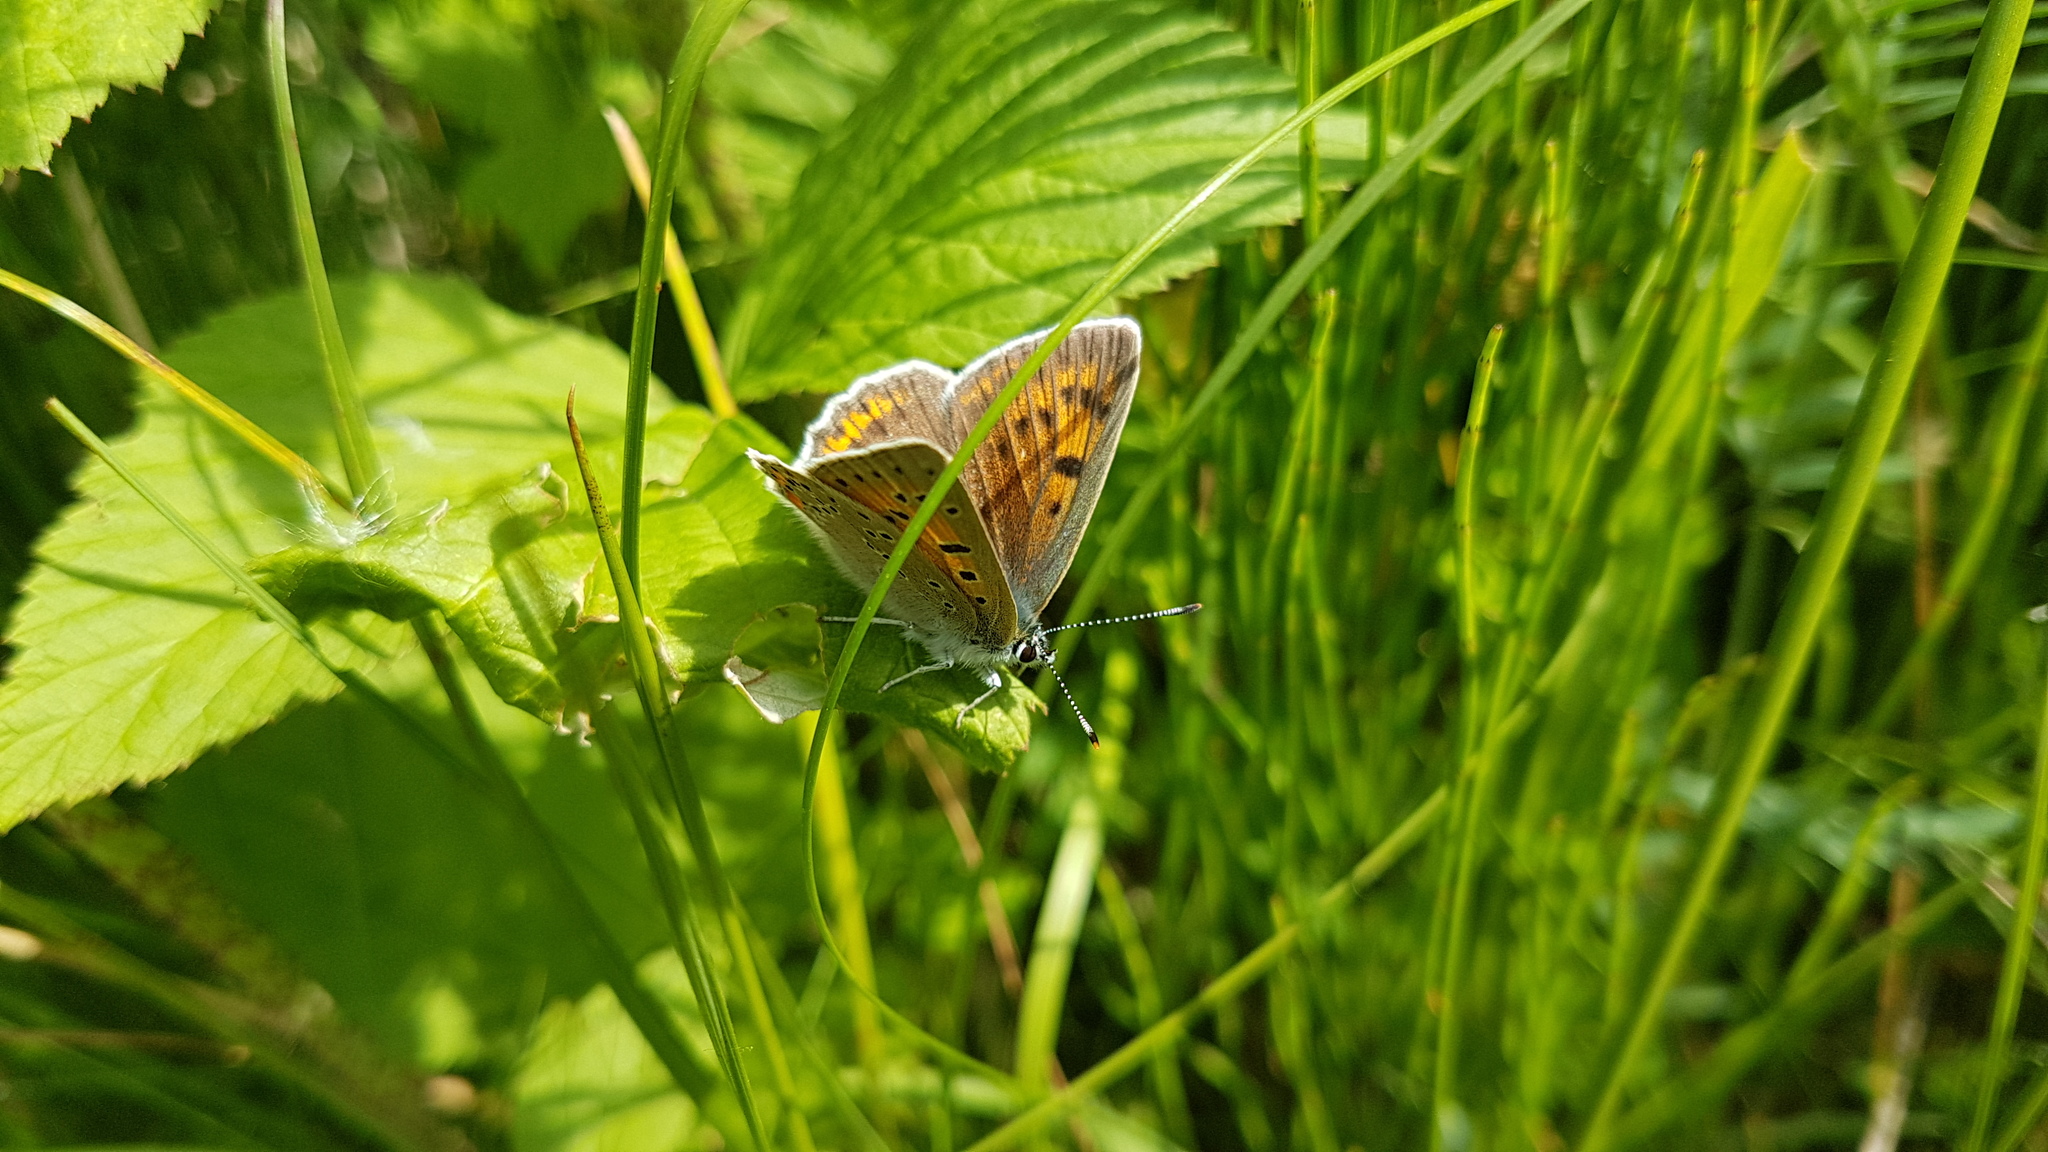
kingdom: Animalia
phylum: Arthropoda
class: Insecta
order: Lepidoptera
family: Lycaenidae
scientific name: Lycaenidae
